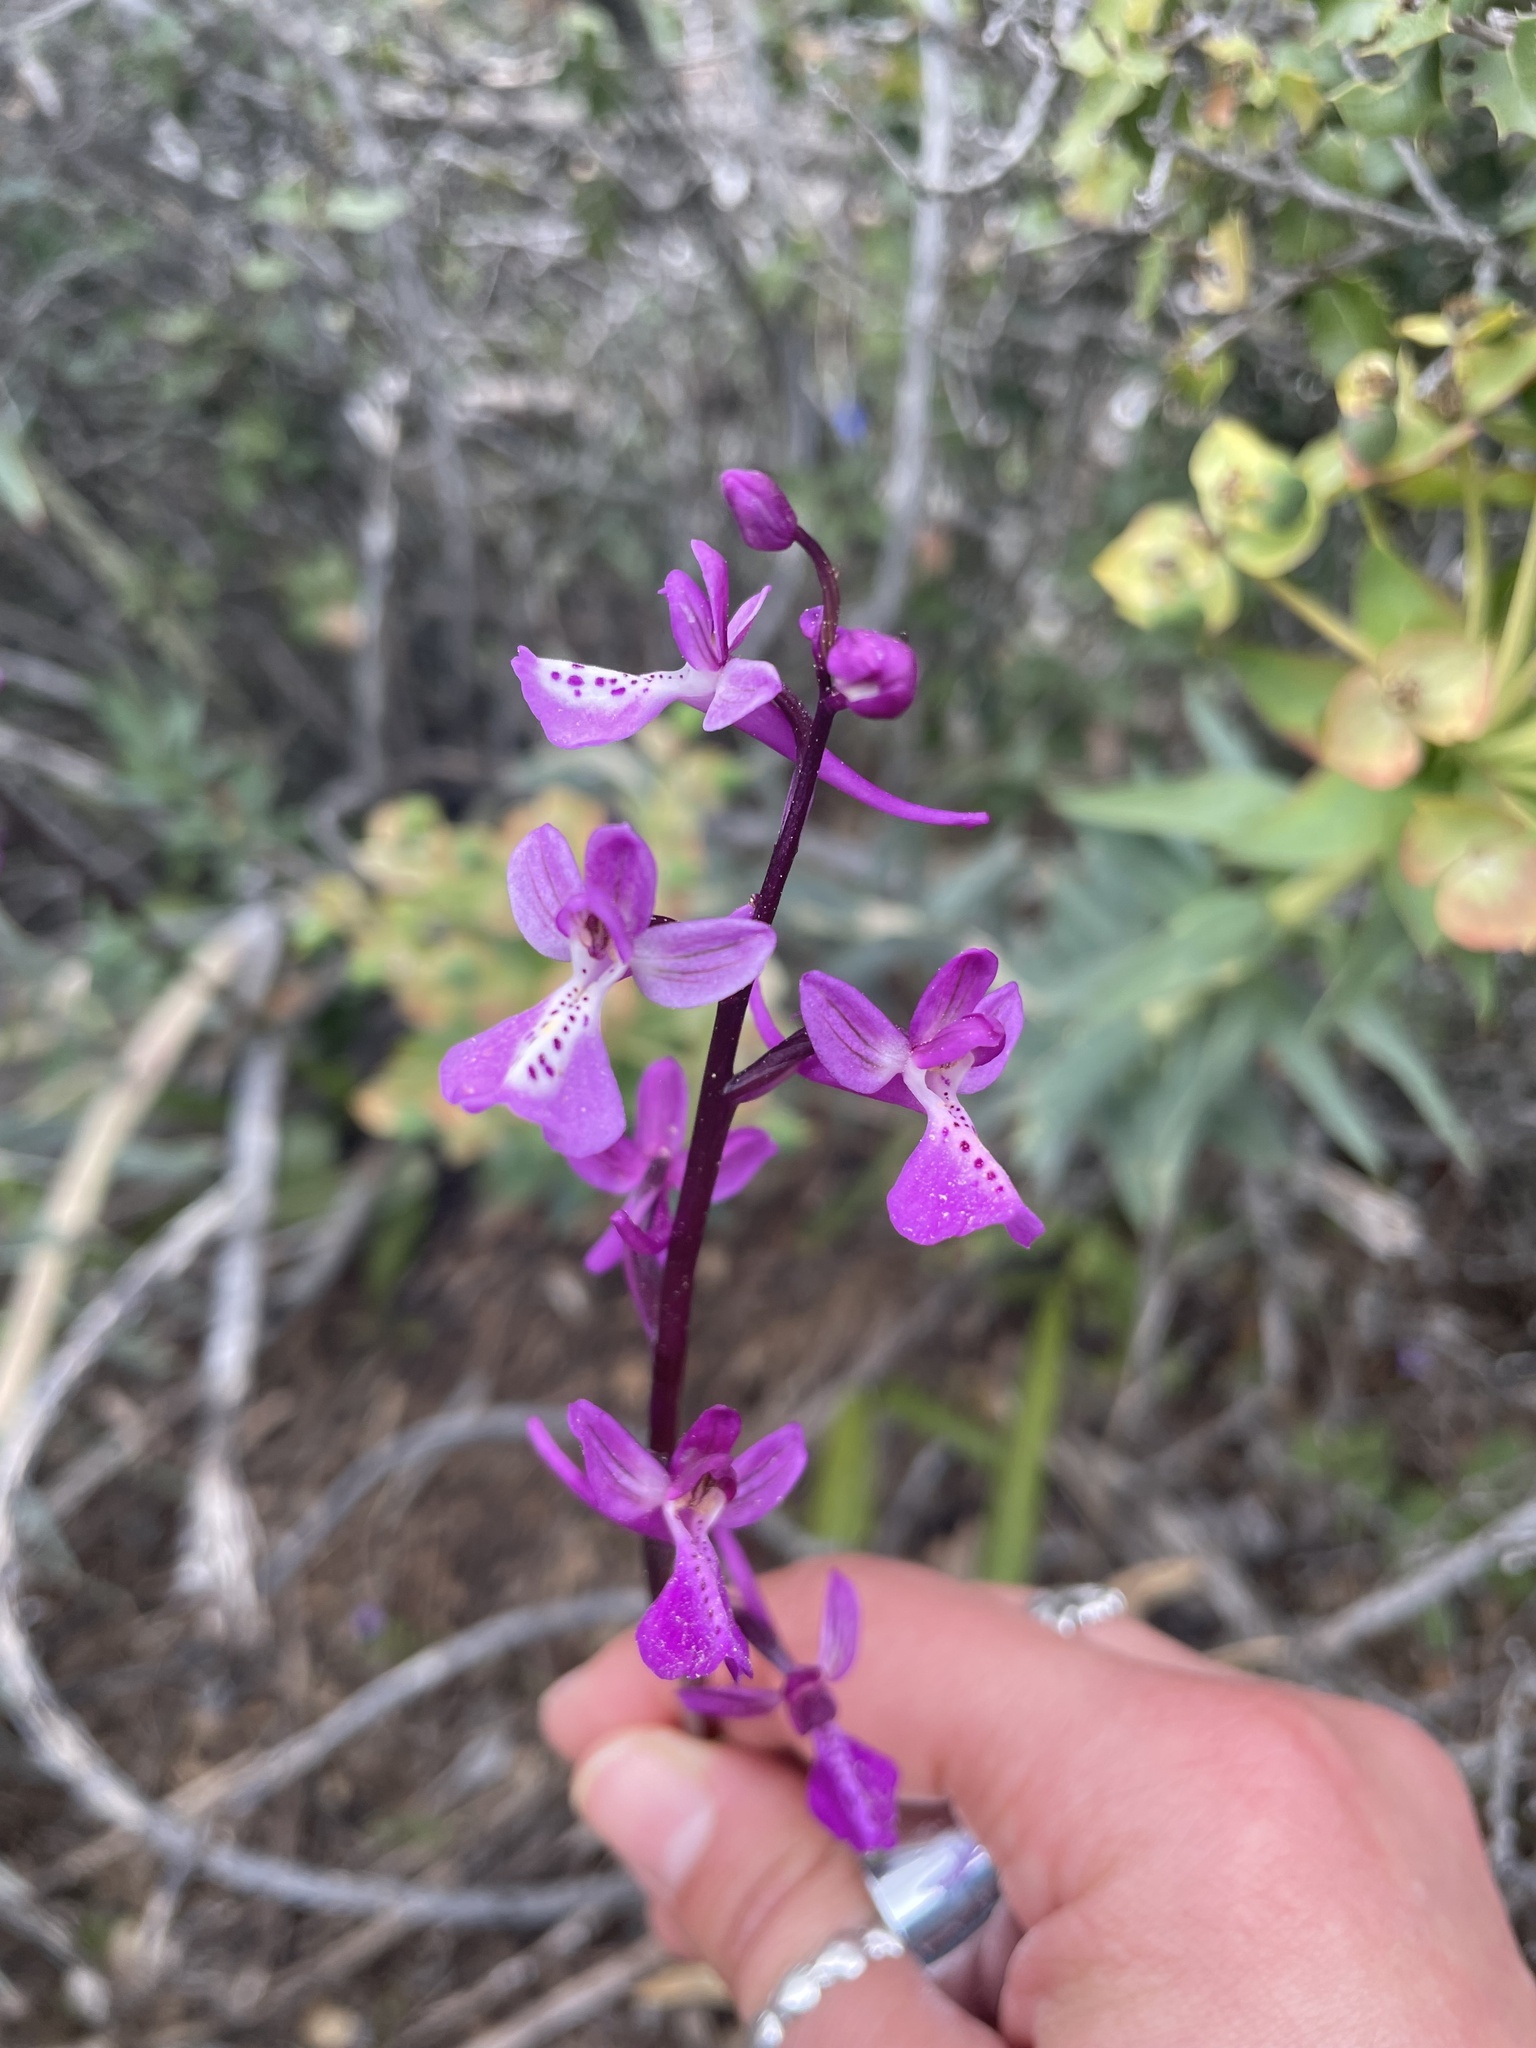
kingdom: Plantae
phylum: Tracheophyta
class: Liliopsida
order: Asparagales
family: Orchidaceae
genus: Orchis
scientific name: Orchis anatolica
